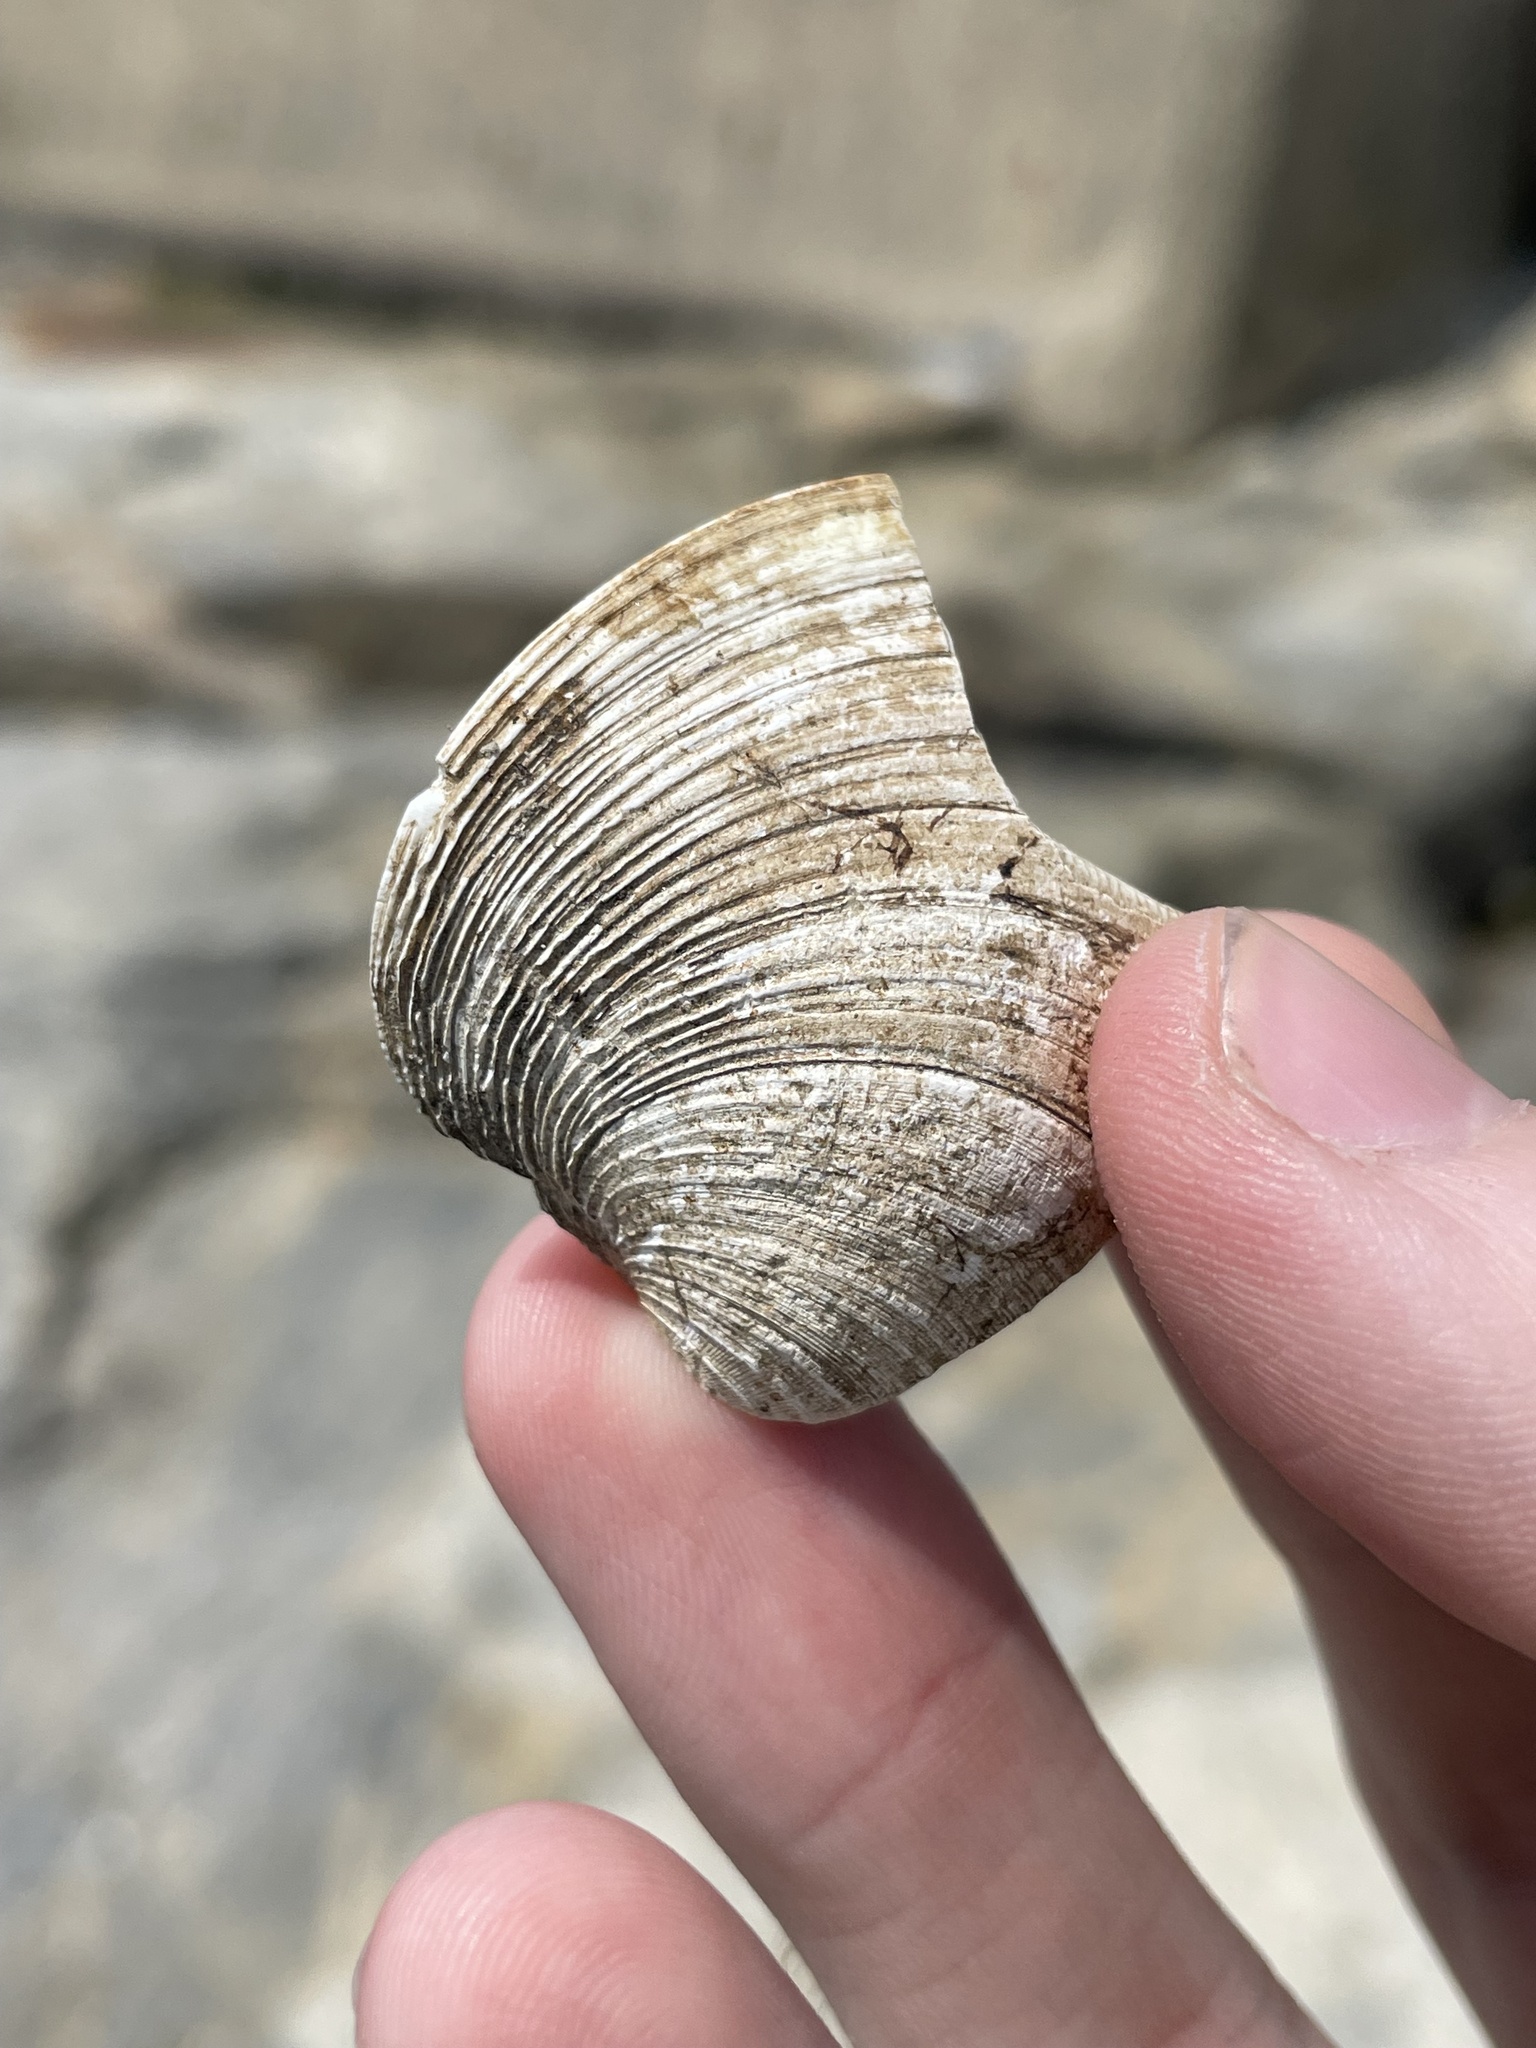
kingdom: Animalia
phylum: Mollusca
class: Bivalvia
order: Venerida
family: Veneridae
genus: Mercenaria
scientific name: Mercenaria mercenaria
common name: American hard-shelled clam
